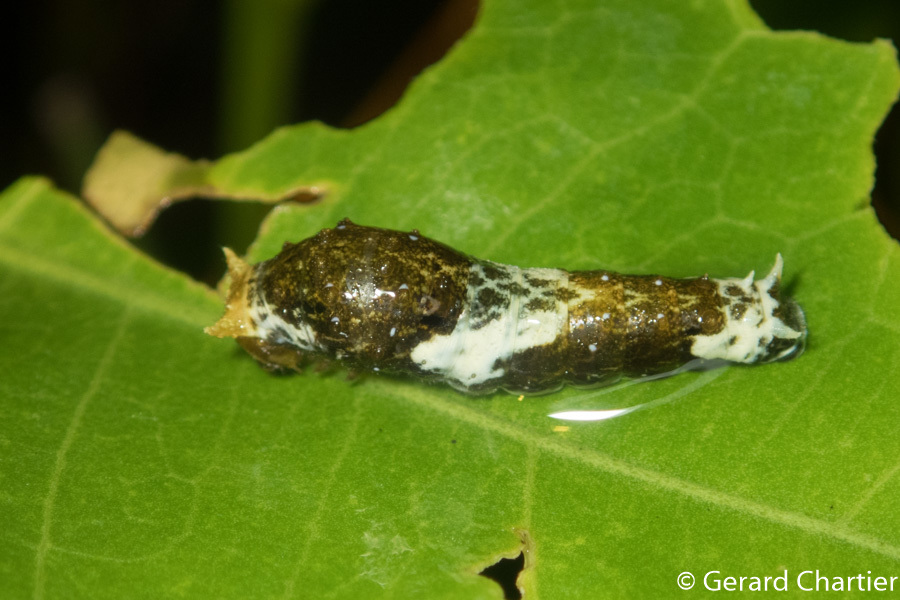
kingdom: Animalia
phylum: Arthropoda
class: Insecta
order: Lepidoptera
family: Papilionidae
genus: Papilio
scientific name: Papilio polytes
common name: Common mormon
